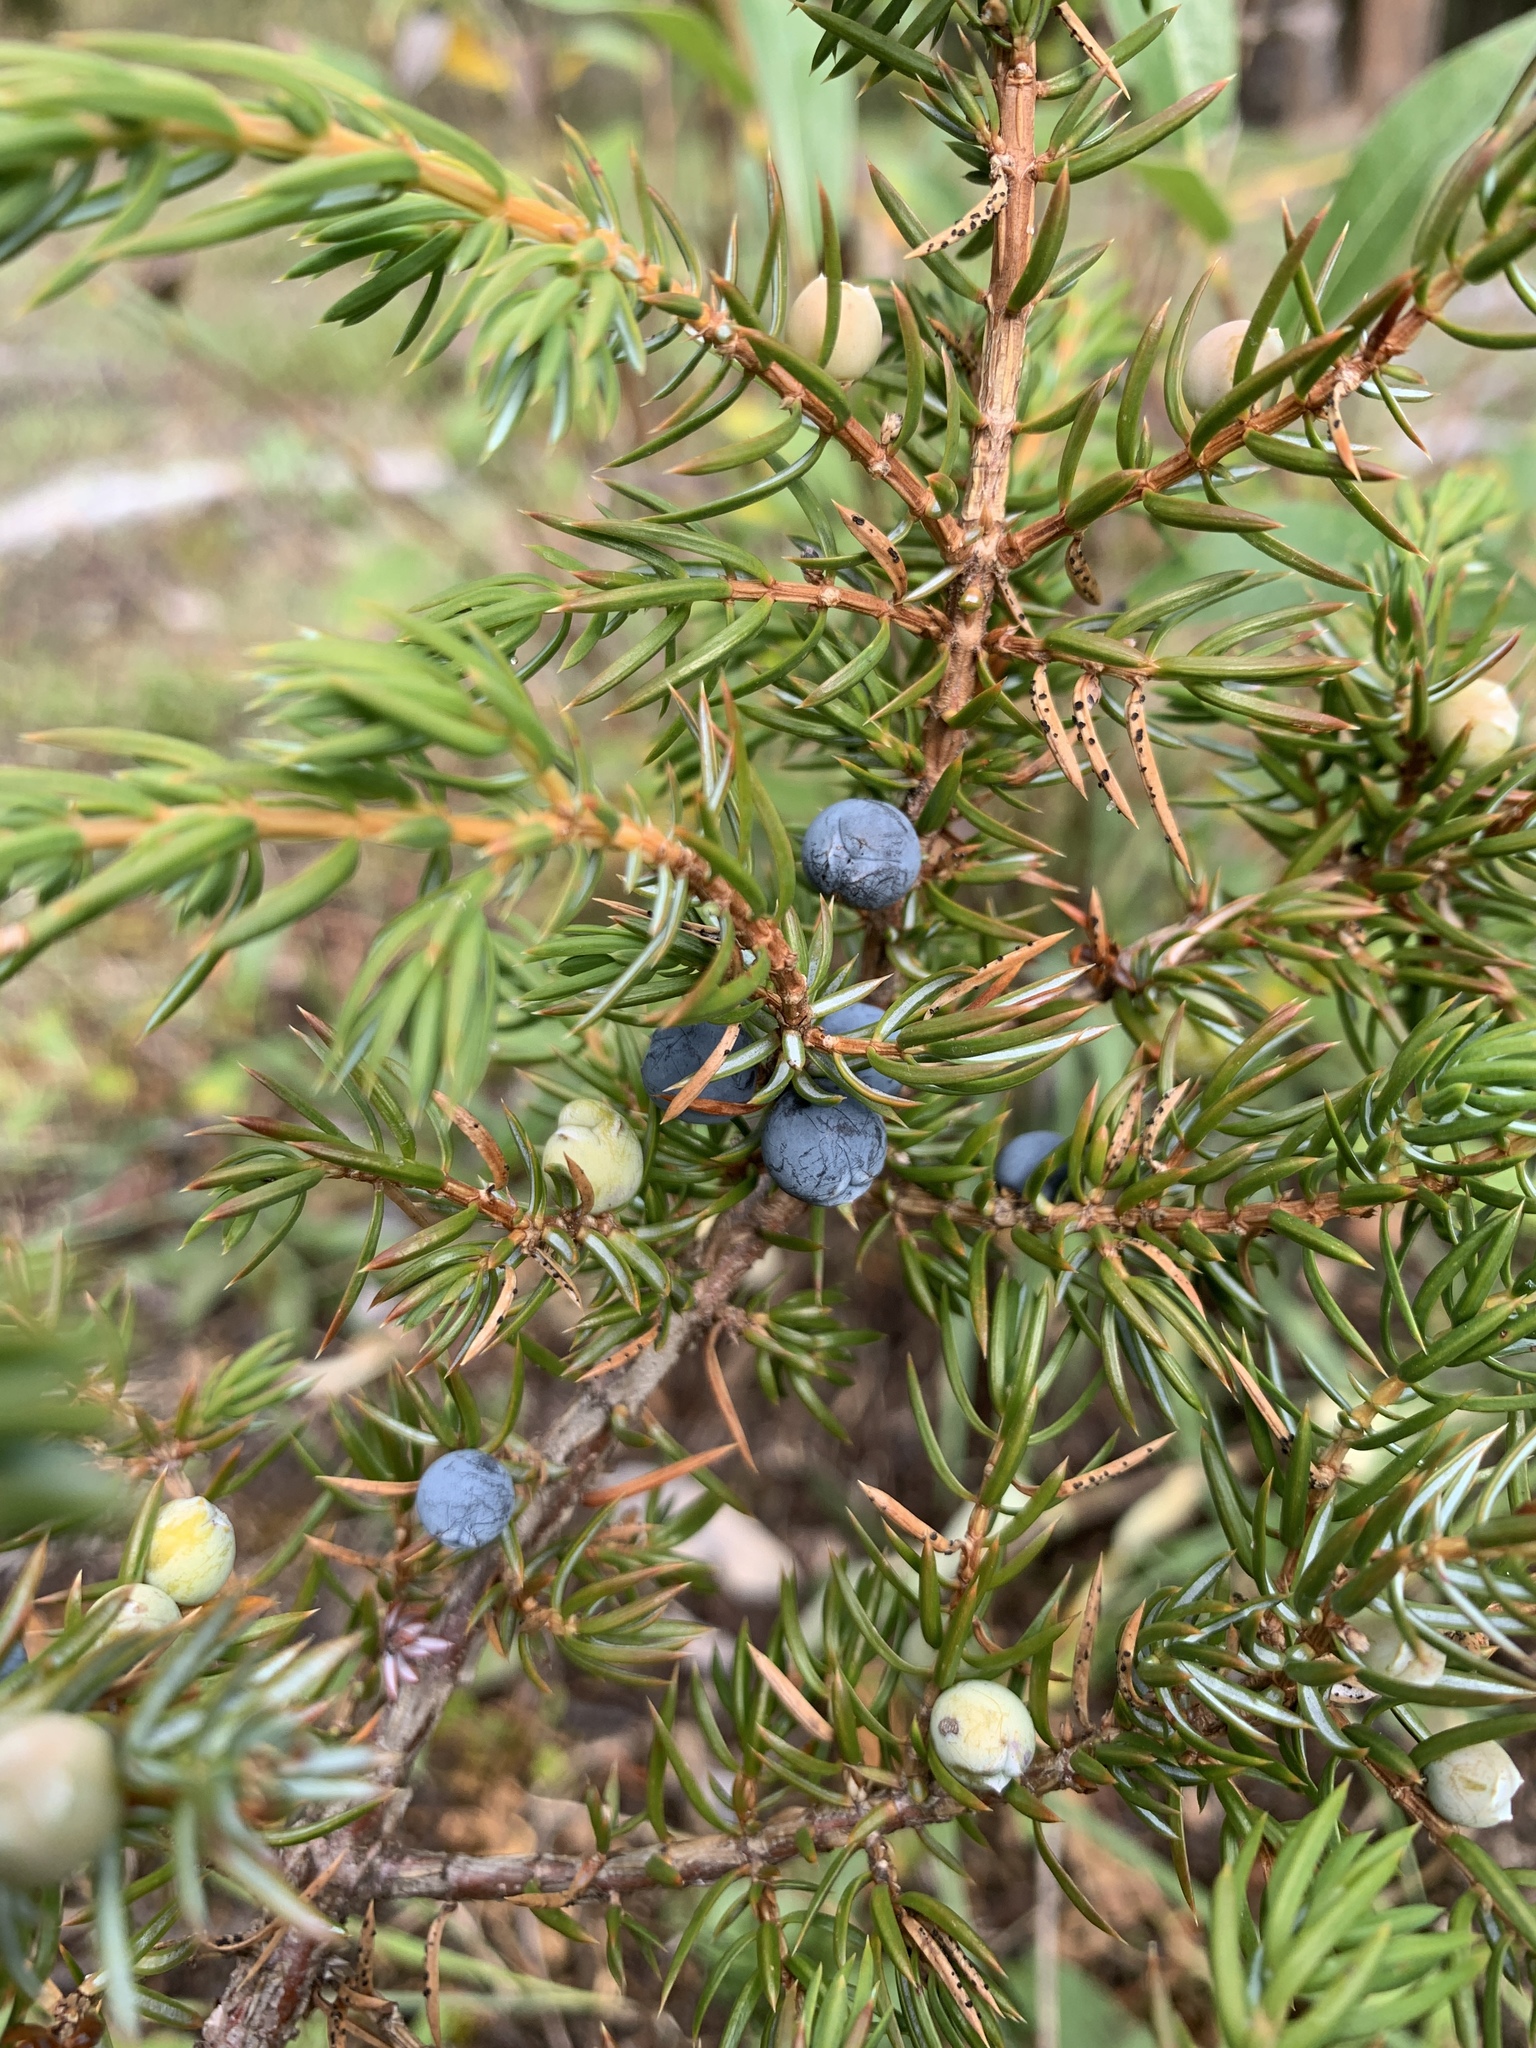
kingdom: Plantae
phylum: Tracheophyta
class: Pinopsida
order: Pinales
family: Cupressaceae
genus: Juniperus
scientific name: Juniperus communis
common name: Common juniper
